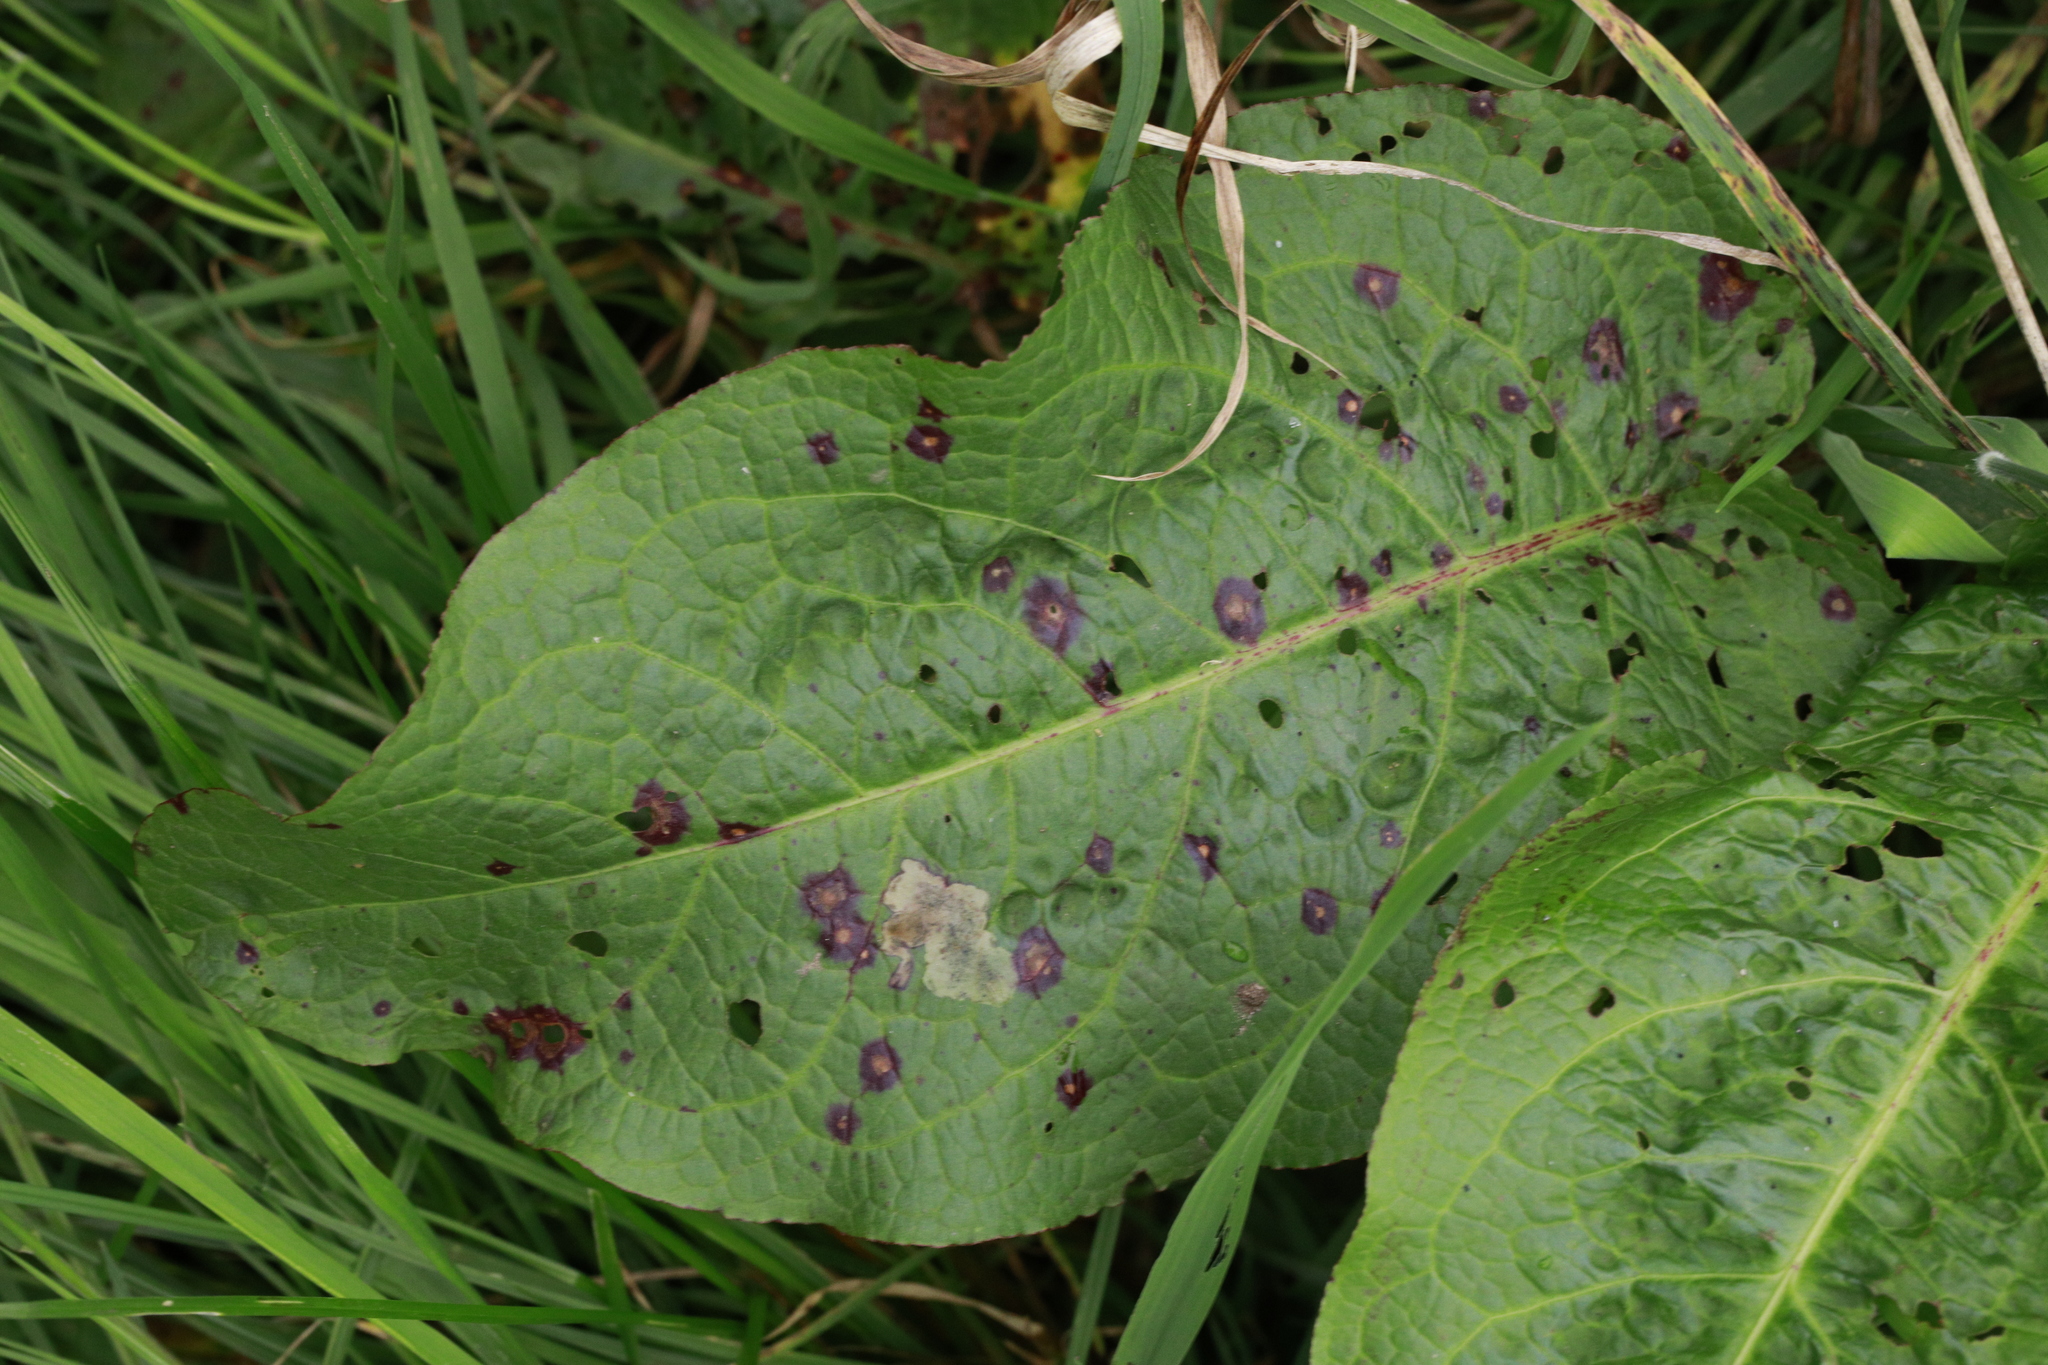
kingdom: Plantae
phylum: Tracheophyta
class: Magnoliopsida
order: Caryophyllales
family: Polygonaceae
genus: Rumex
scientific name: Rumex obtusifolius
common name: Bitter dock
